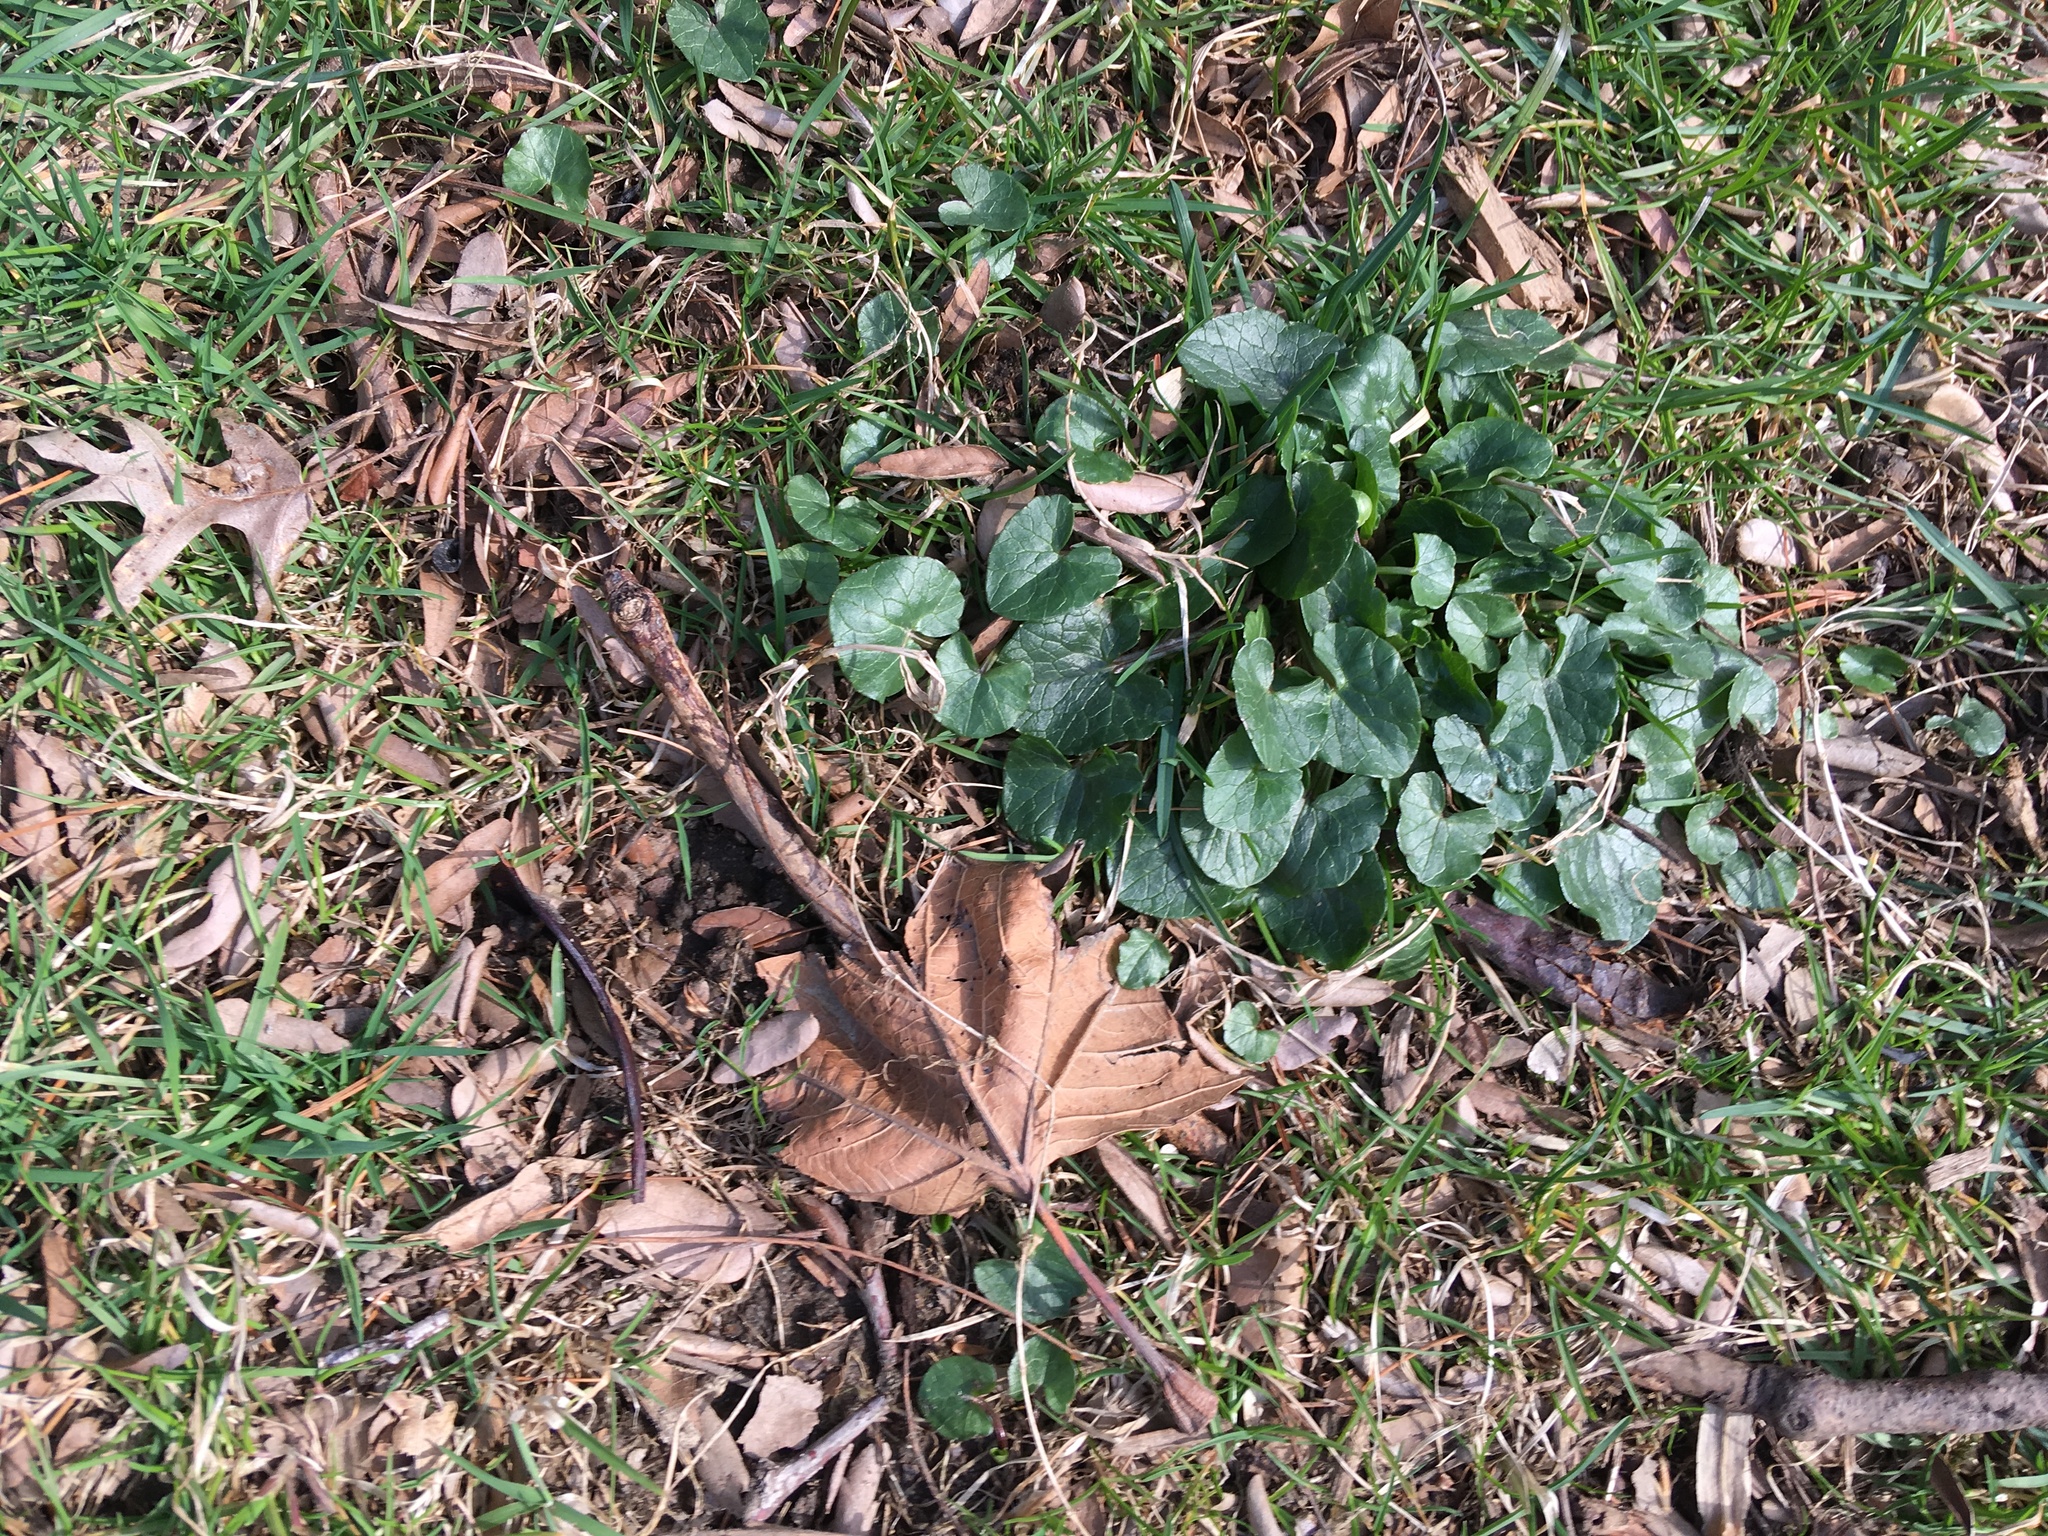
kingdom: Plantae
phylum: Tracheophyta
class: Magnoliopsida
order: Ranunculales
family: Ranunculaceae
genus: Ficaria
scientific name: Ficaria verna
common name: Lesser celandine
